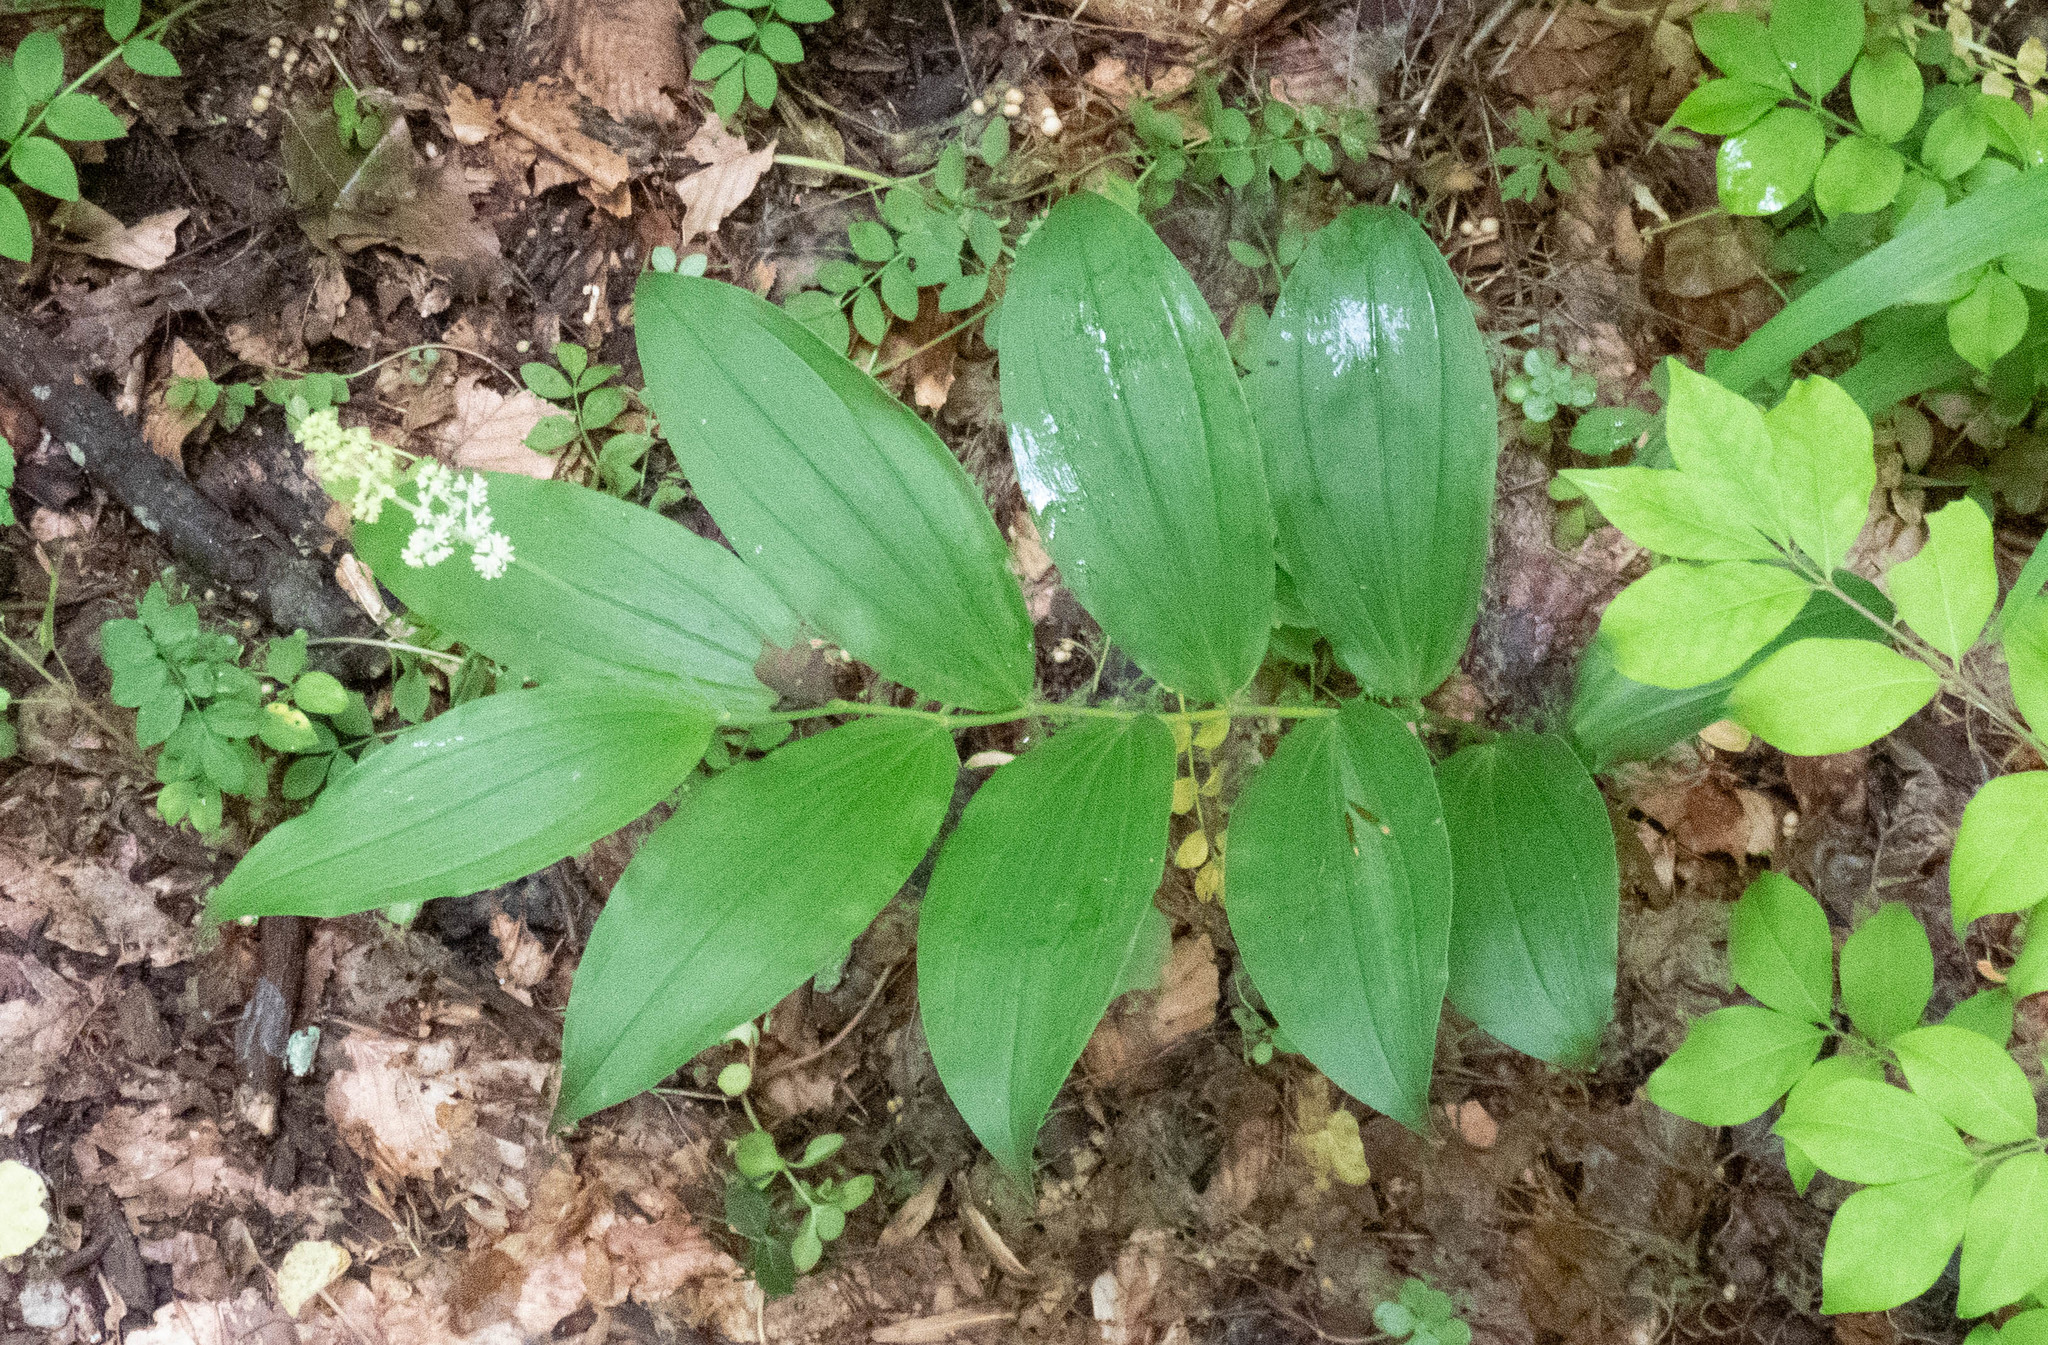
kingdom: Plantae
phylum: Tracheophyta
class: Liliopsida
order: Asparagales
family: Asparagaceae
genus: Maianthemum
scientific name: Maianthemum racemosum
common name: False spikenard
